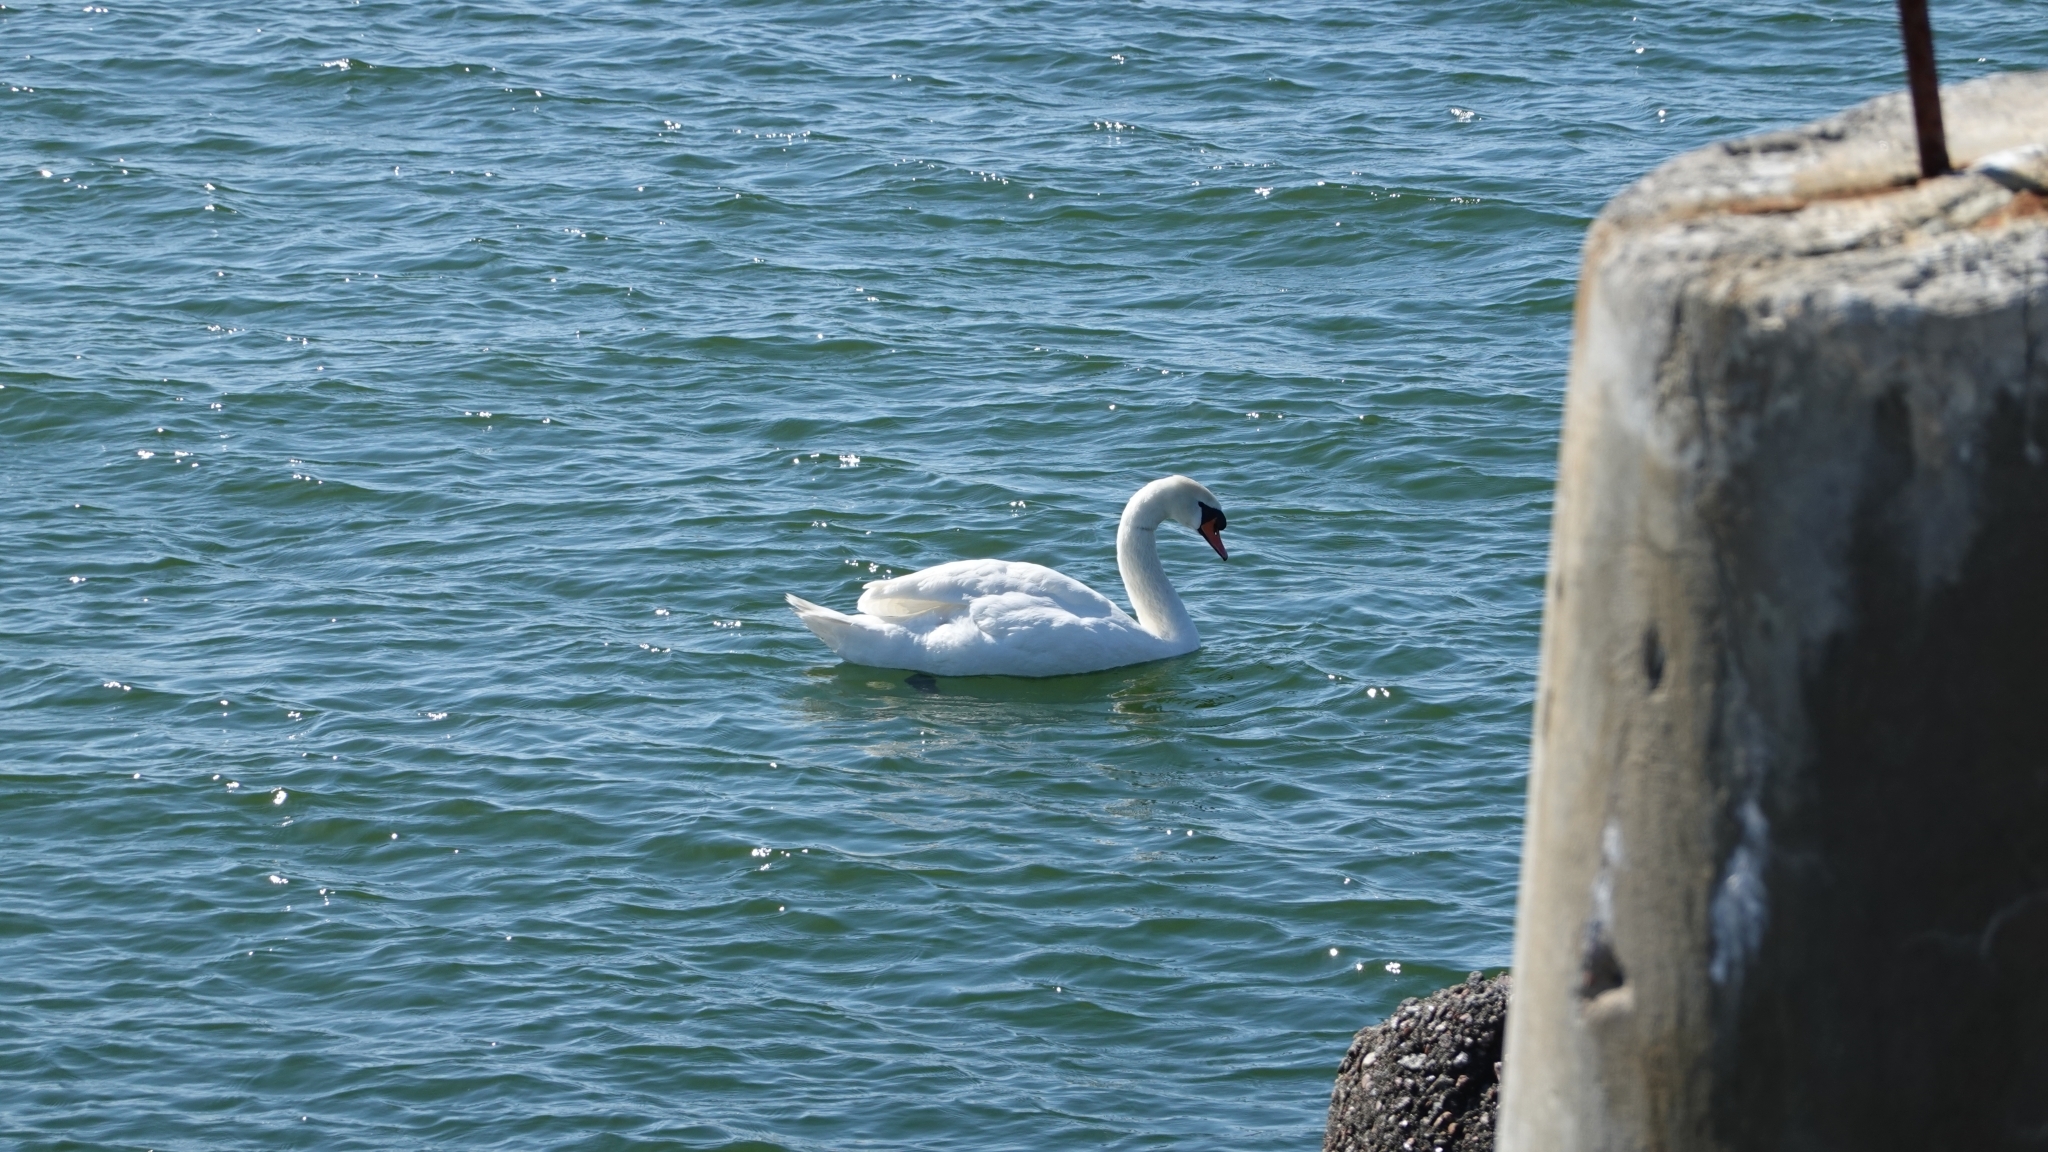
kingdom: Animalia
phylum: Chordata
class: Aves
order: Anseriformes
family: Anatidae
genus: Cygnus
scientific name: Cygnus olor
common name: Mute swan
